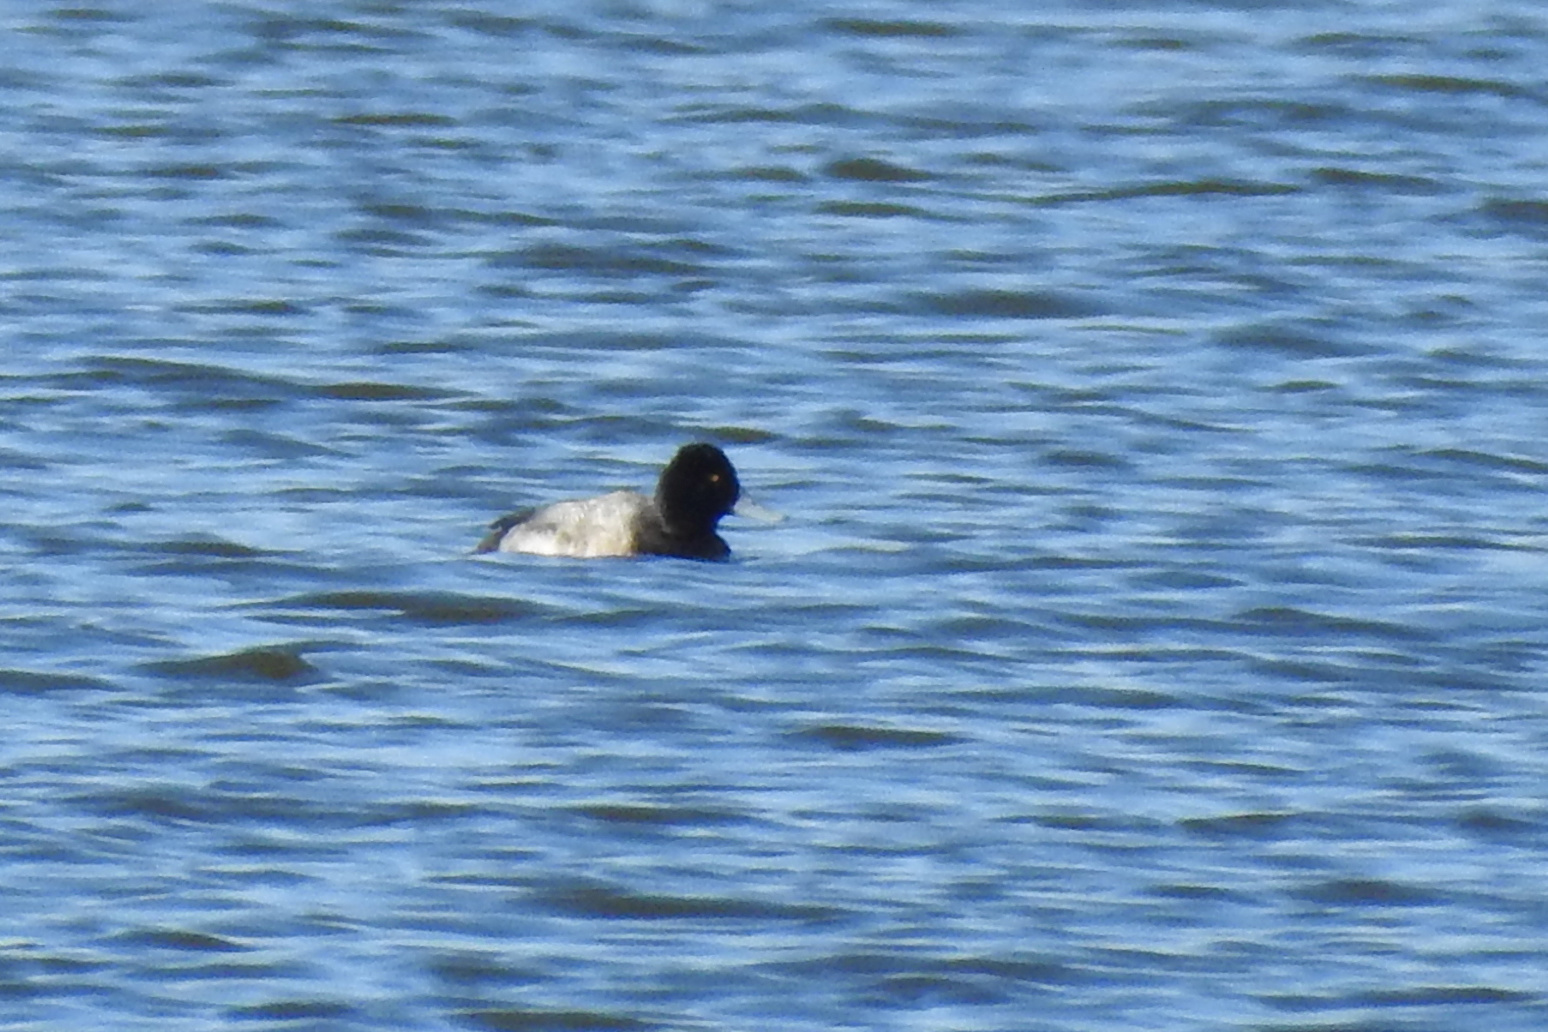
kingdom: Animalia
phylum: Chordata
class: Aves
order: Anseriformes
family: Anatidae
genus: Aythya
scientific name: Aythya affinis
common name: Lesser scaup
